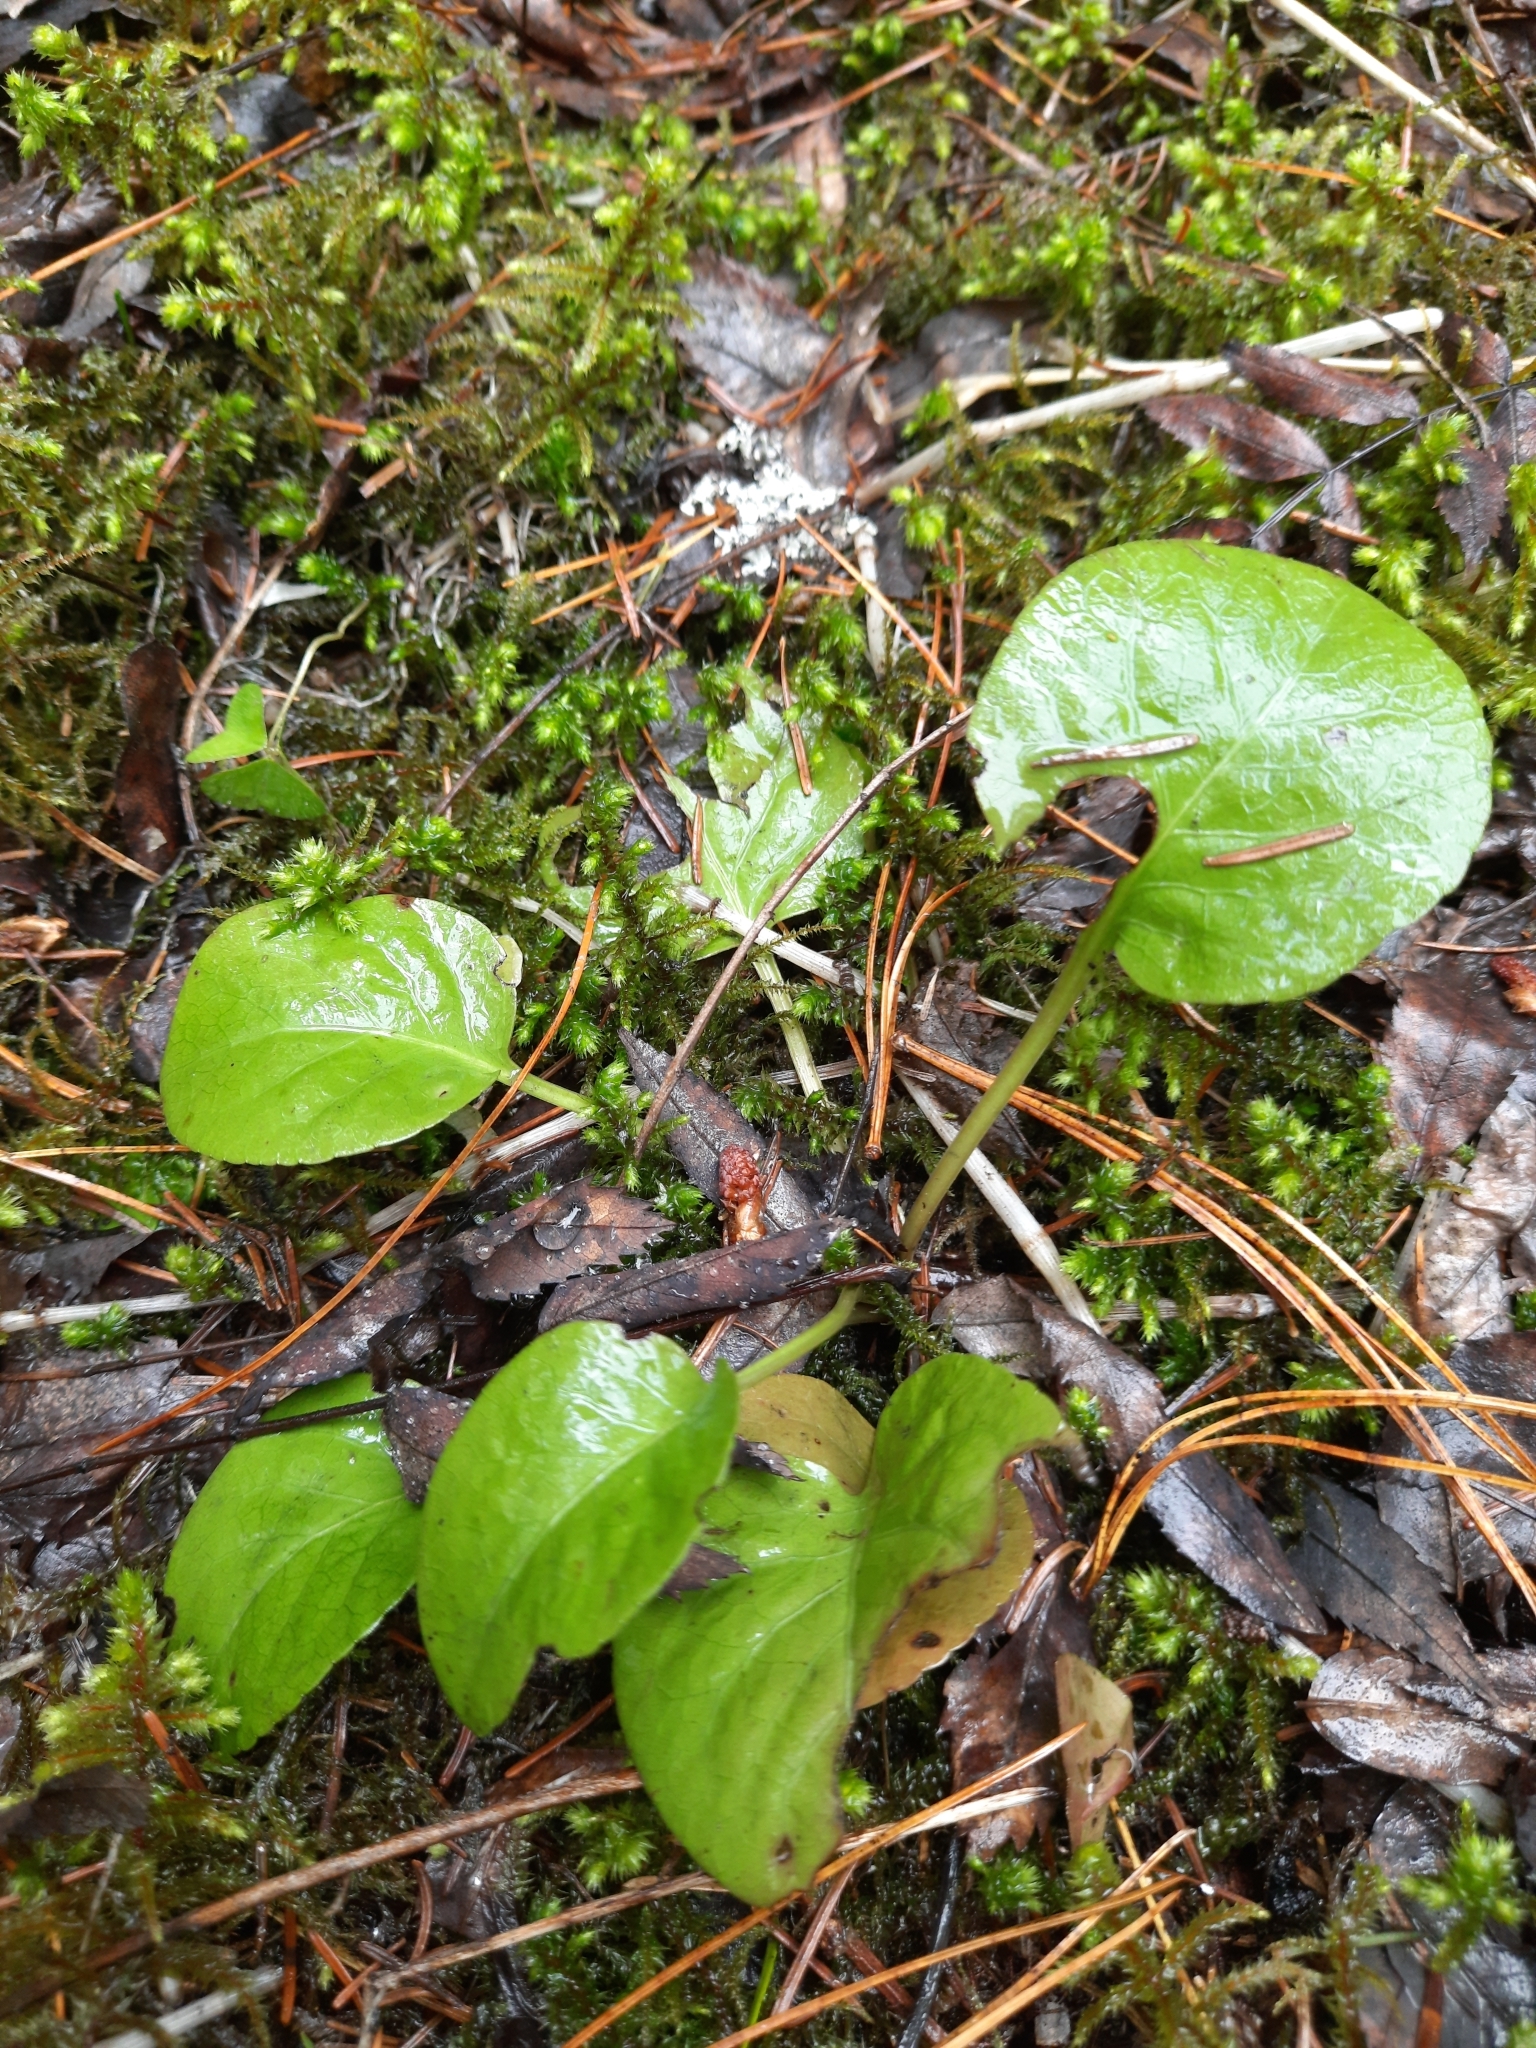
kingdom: Plantae
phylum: Tracheophyta
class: Magnoliopsida
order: Ericales
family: Ericaceae
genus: Pyrola
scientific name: Pyrola
